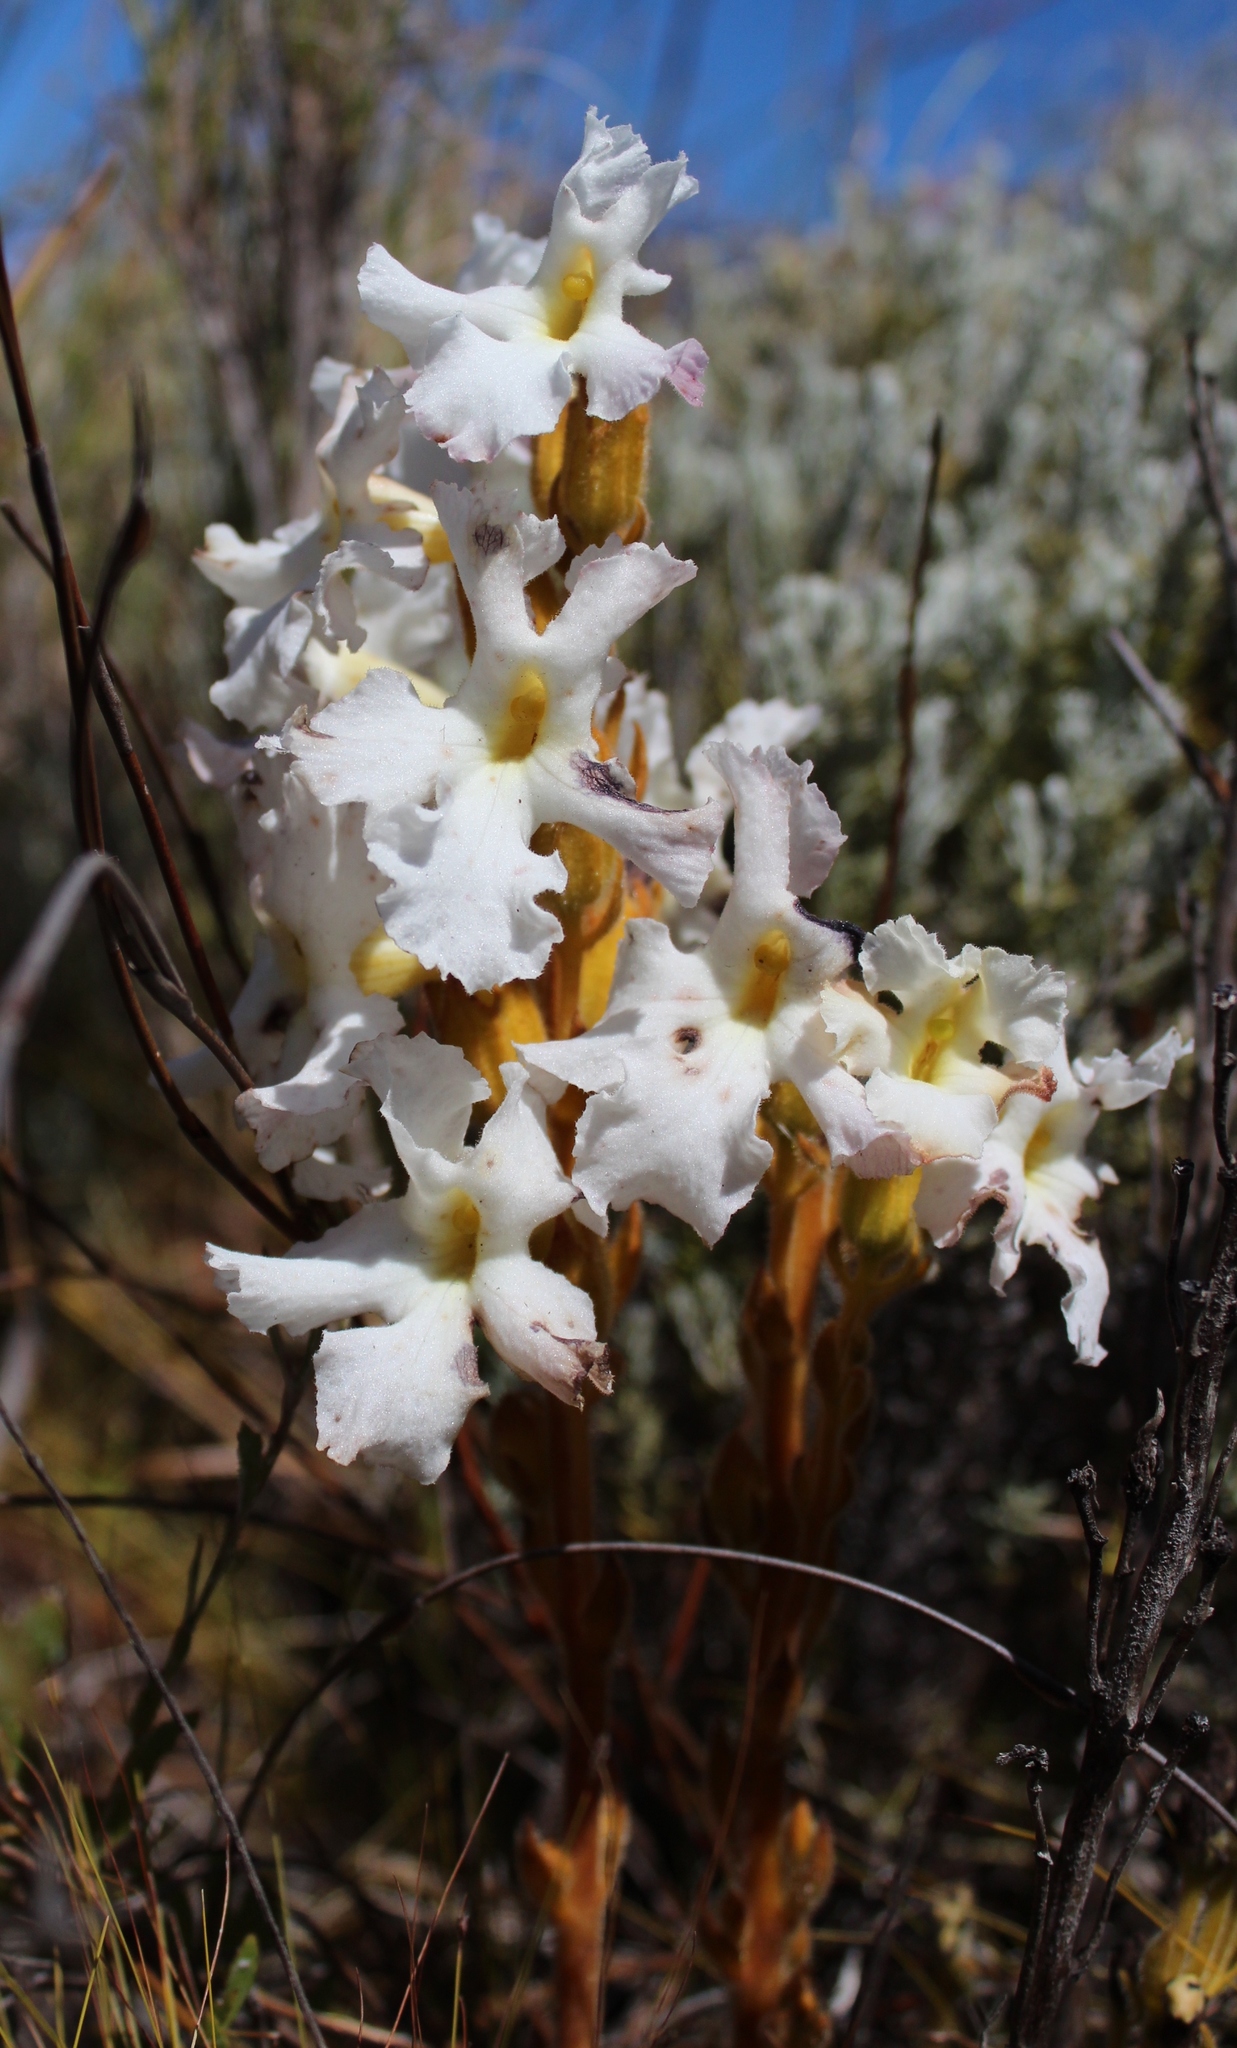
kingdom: Plantae
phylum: Tracheophyta
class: Magnoliopsida
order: Lamiales
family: Orobanchaceae
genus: Harveya
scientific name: Harveya capensis
